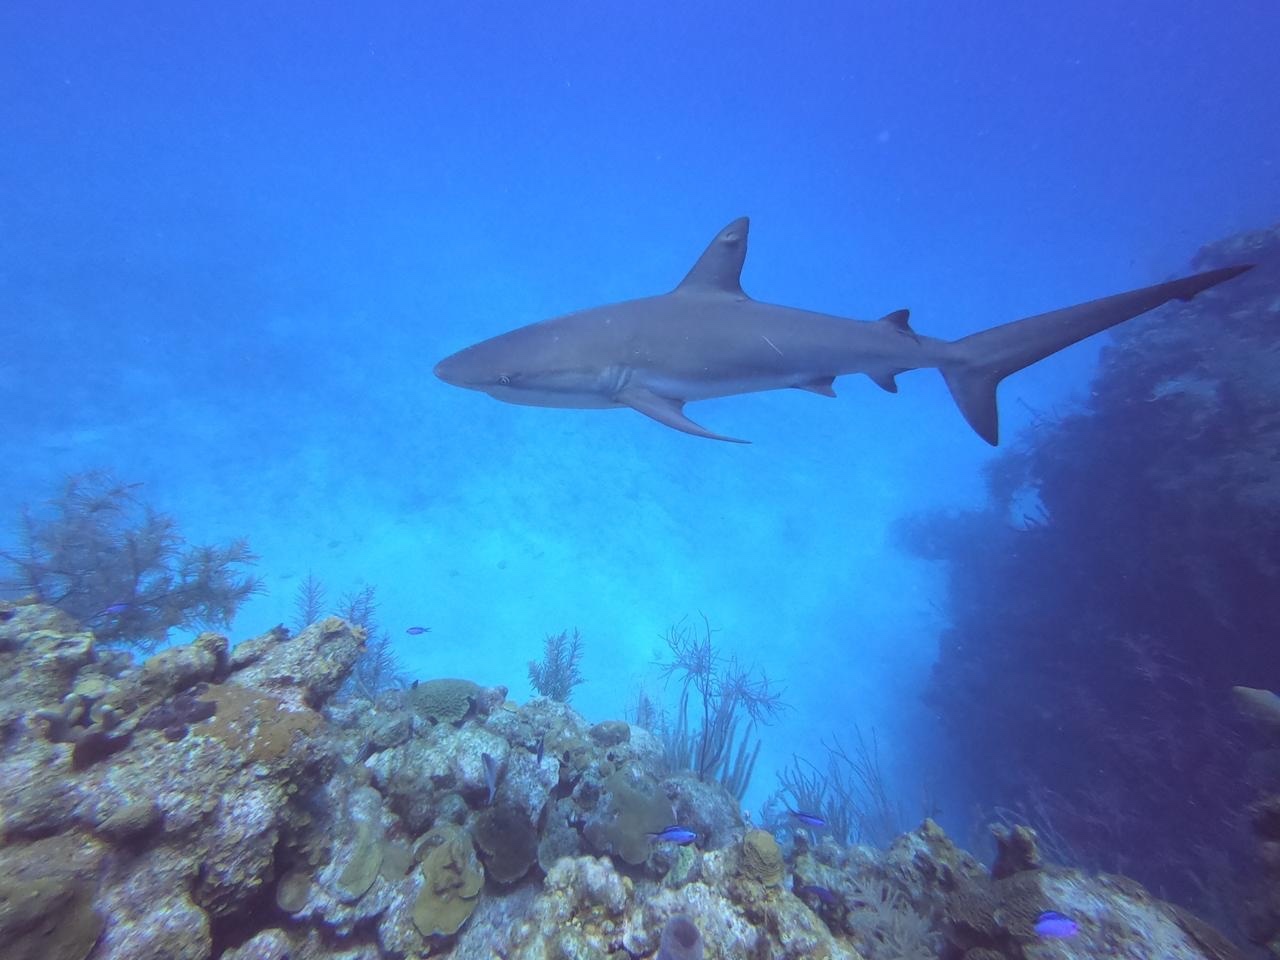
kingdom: Animalia
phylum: Chordata
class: Elasmobranchii
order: Carcharhiniformes
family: Carcharhinidae
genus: Carcharhinus
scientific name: Carcharhinus perezii
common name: Reef shark
